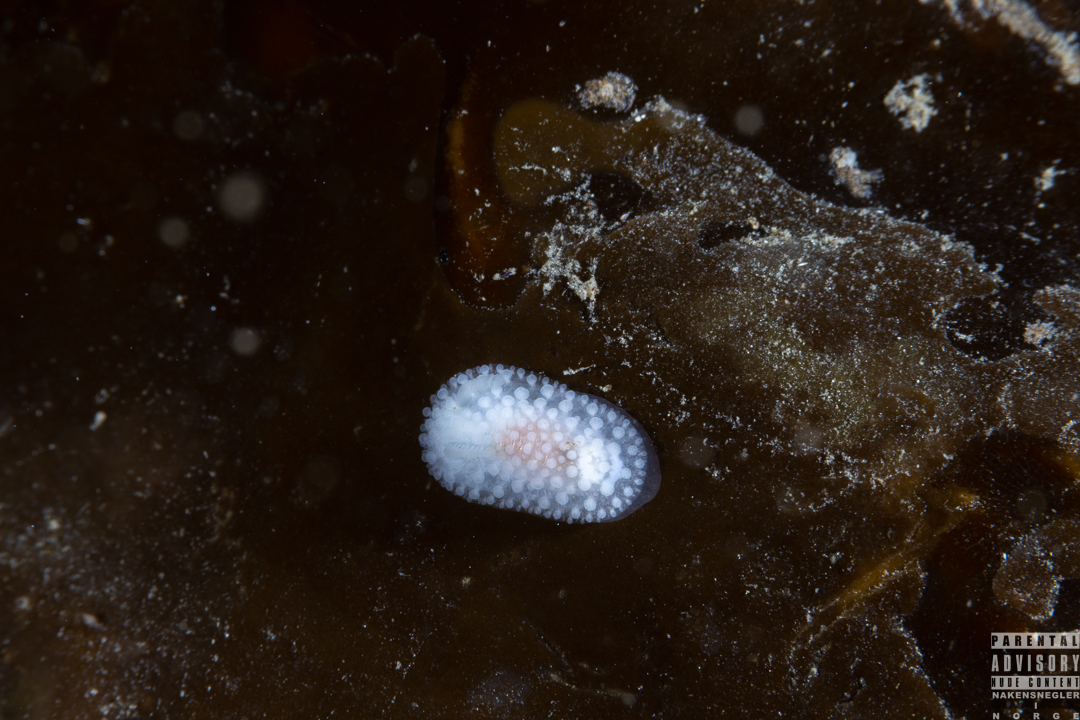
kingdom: Animalia
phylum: Mollusca
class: Gastropoda
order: Nudibranchia
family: Onchidorididae
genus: Onchidoris
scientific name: Onchidoris muricata
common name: Rough doris
